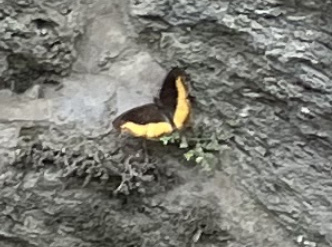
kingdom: Animalia
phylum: Arthropoda
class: Insecta
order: Lepidoptera
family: Nymphalidae
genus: Eurytela
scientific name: Eurytela dryope
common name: Golden piper
